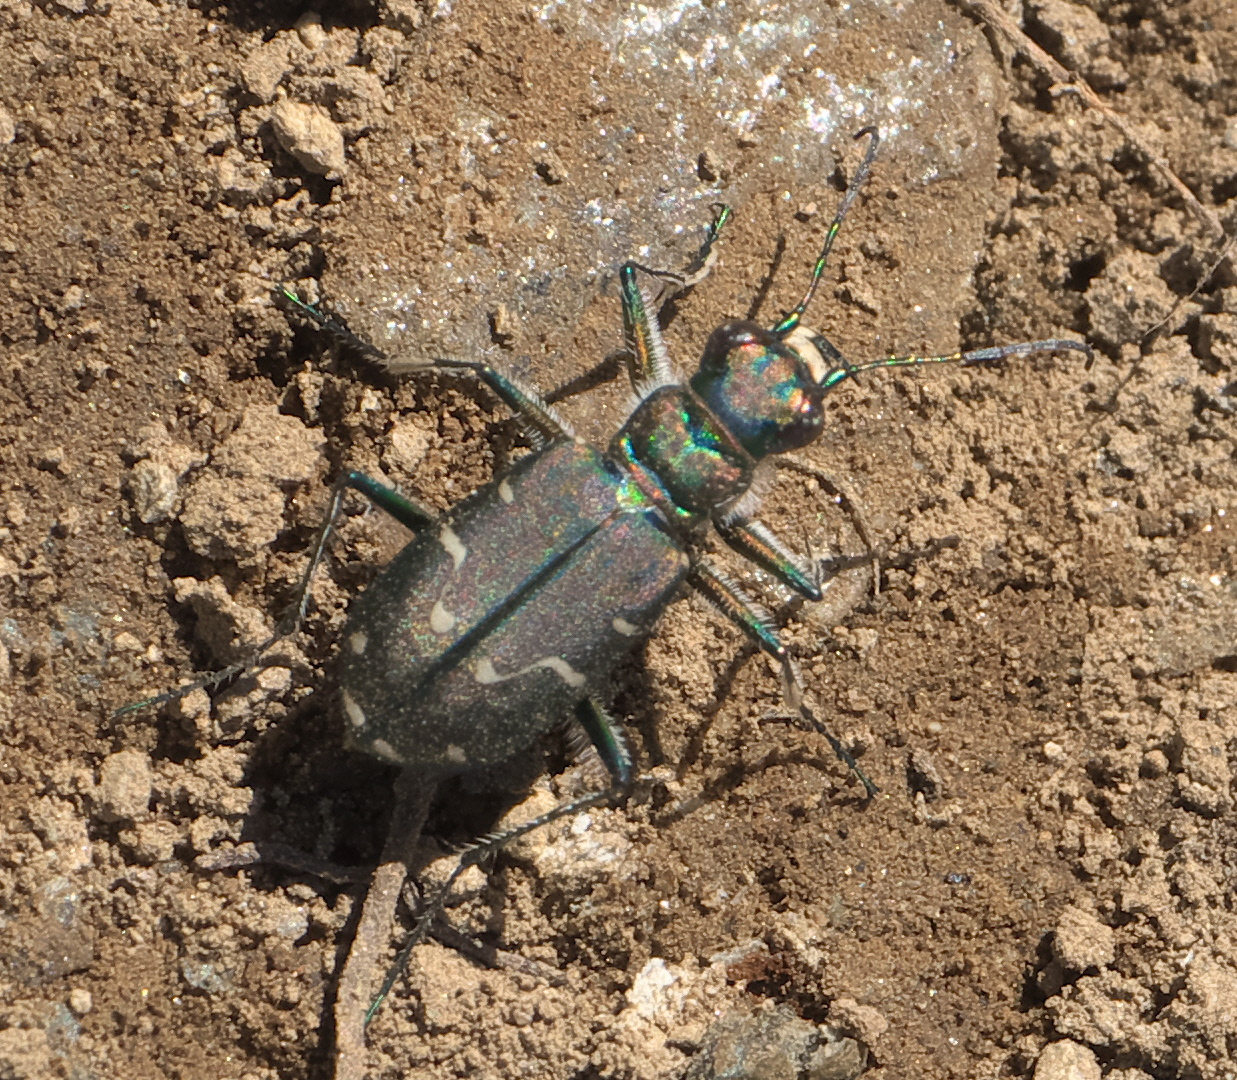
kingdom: Animalia
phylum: Arthropoda
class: Insecta
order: Coleoptera
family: Carabidae
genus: Cicindela
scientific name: Cicindela depressula
